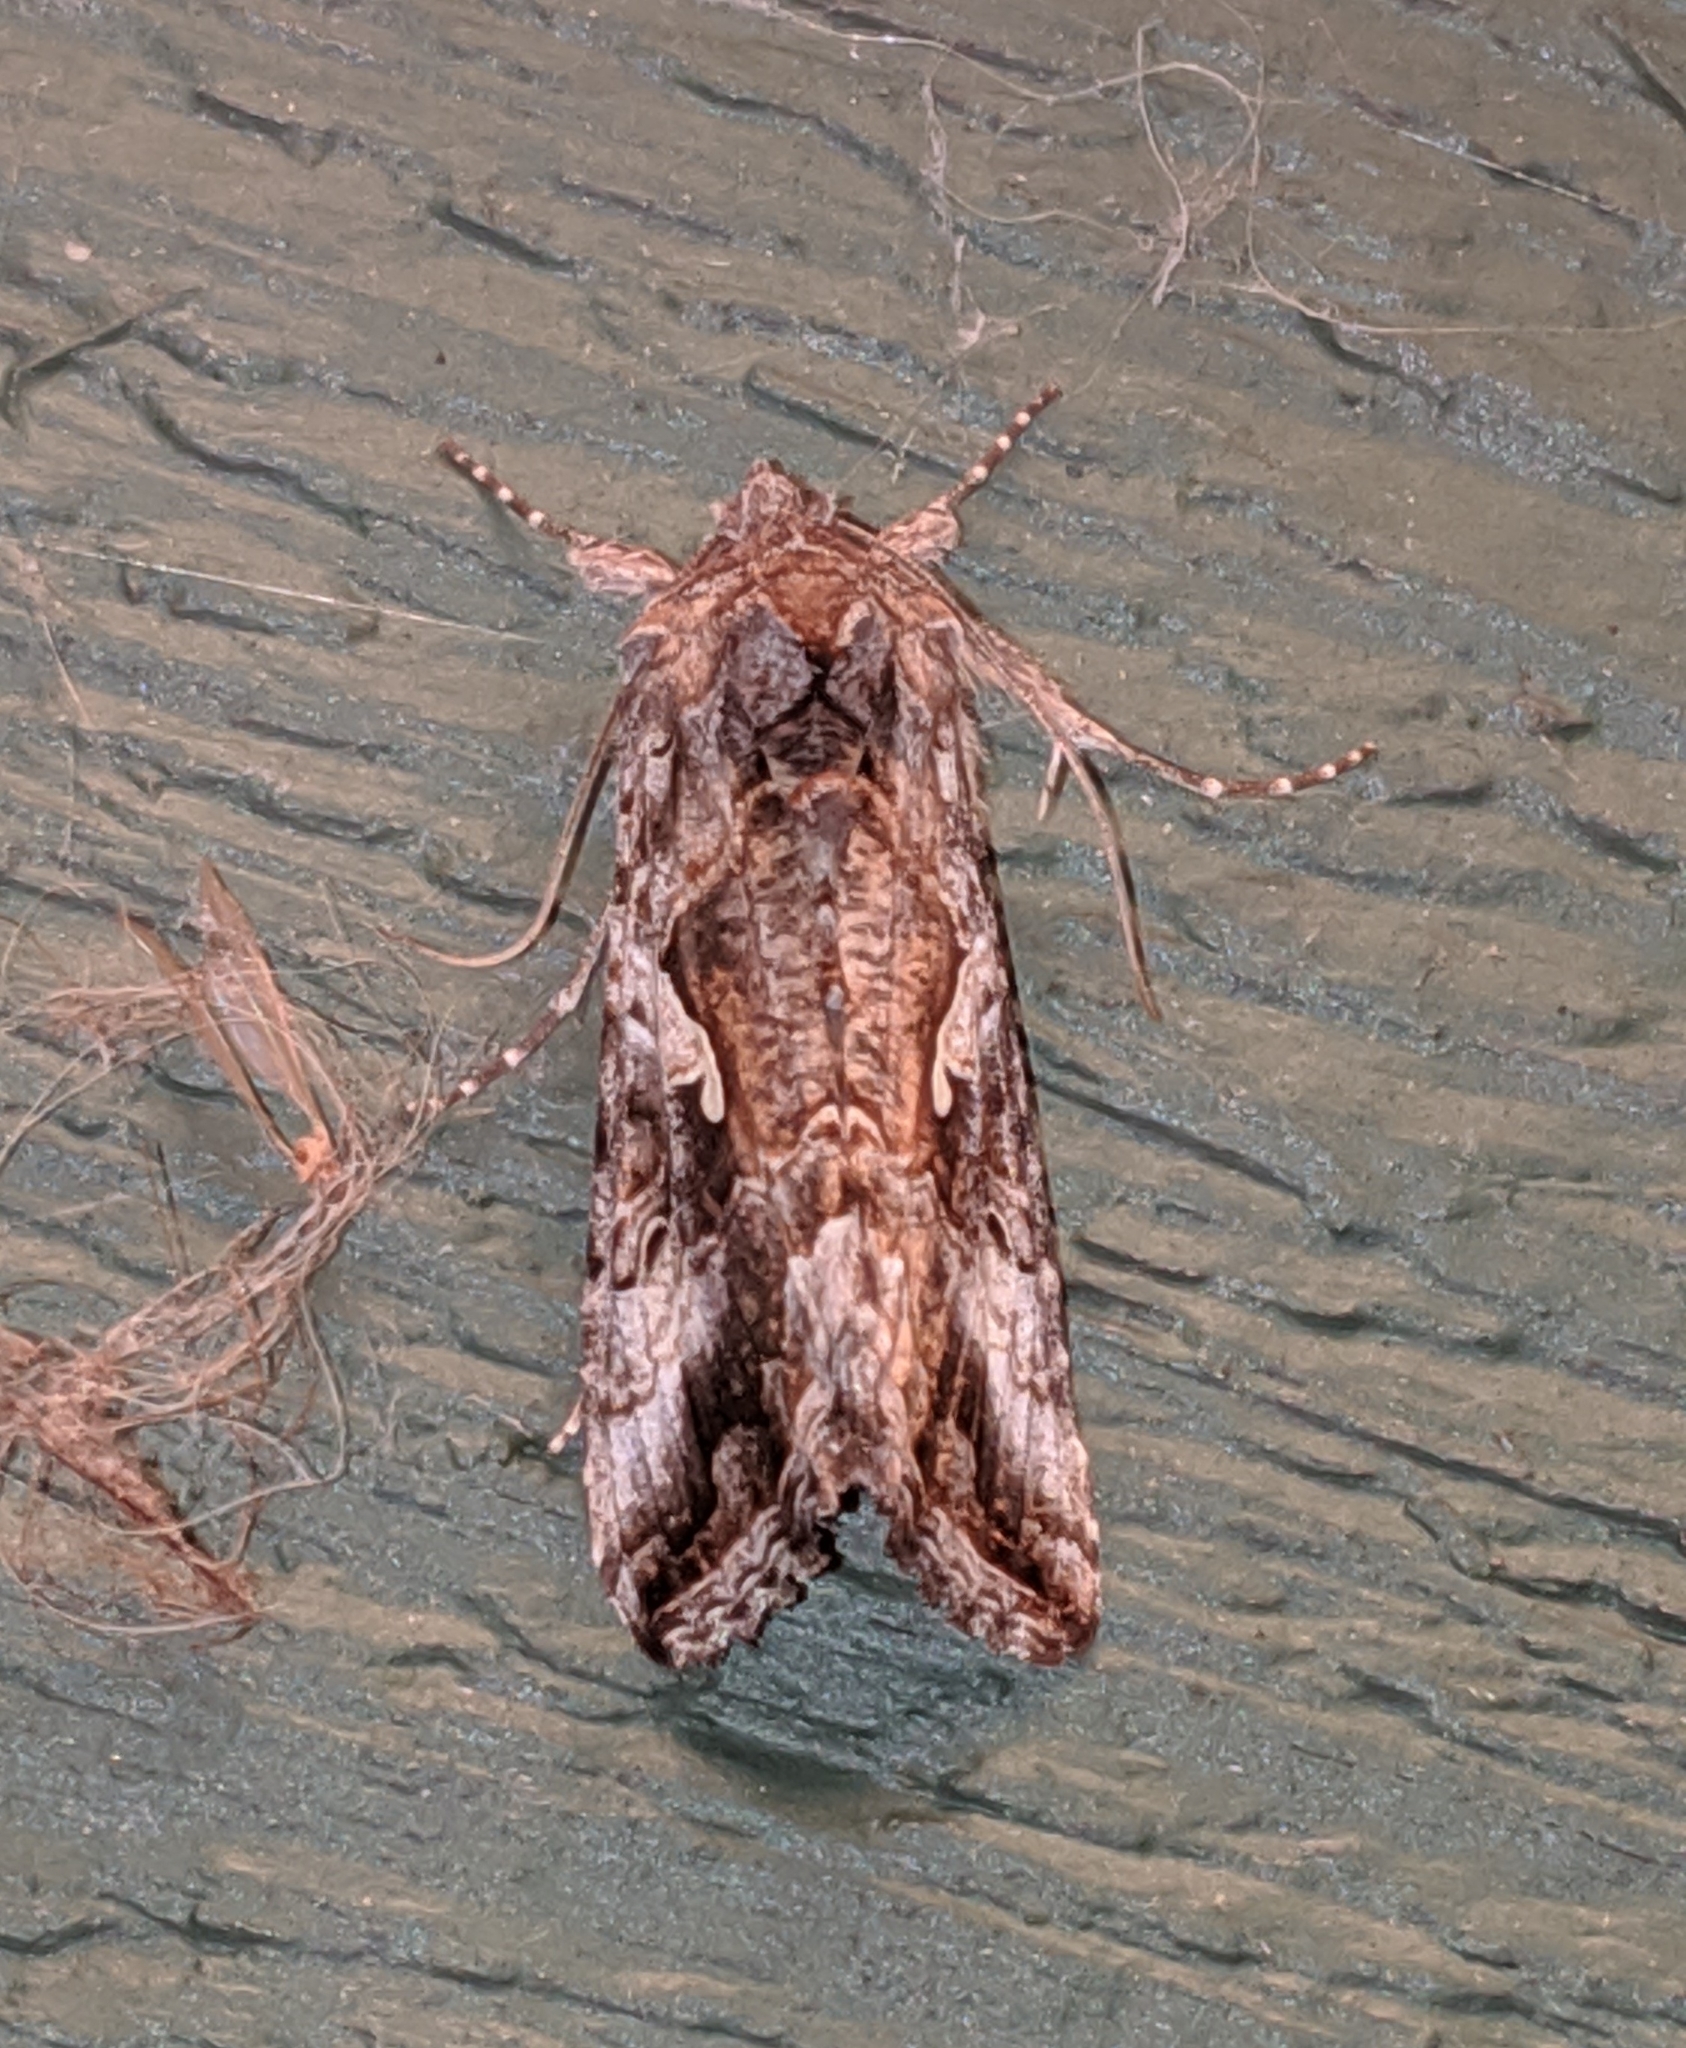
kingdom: Animalia
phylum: Arthropoda
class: Insecta
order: Lepidoptera
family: Noctuidae
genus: Autographa
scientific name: Autographa californica
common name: Alfalfa looper
